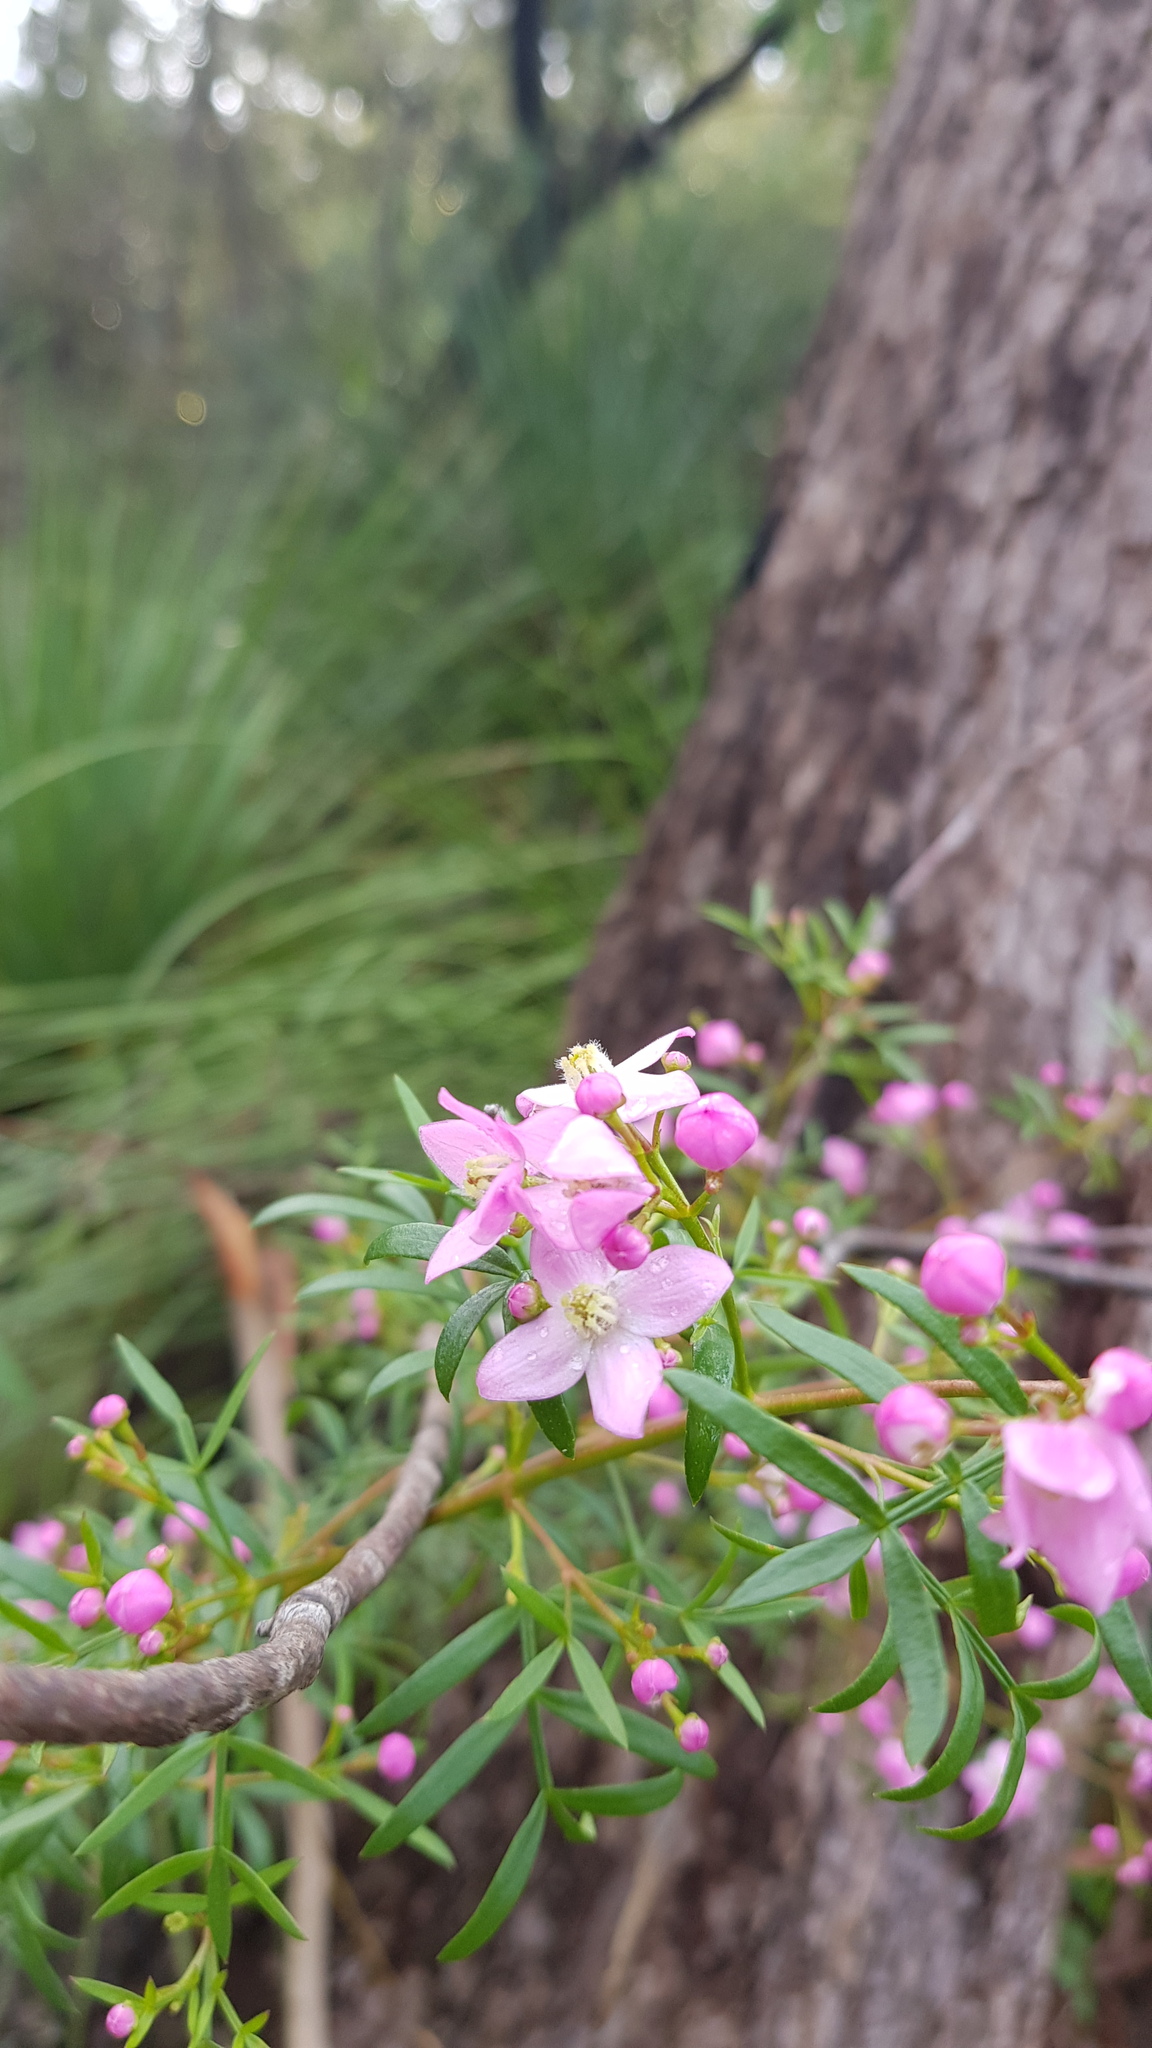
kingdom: Plantae
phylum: Tracheophyta
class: Magnoliopsida
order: Sapindales
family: Rutaceae
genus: Boronia
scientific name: Boronia pinnata
